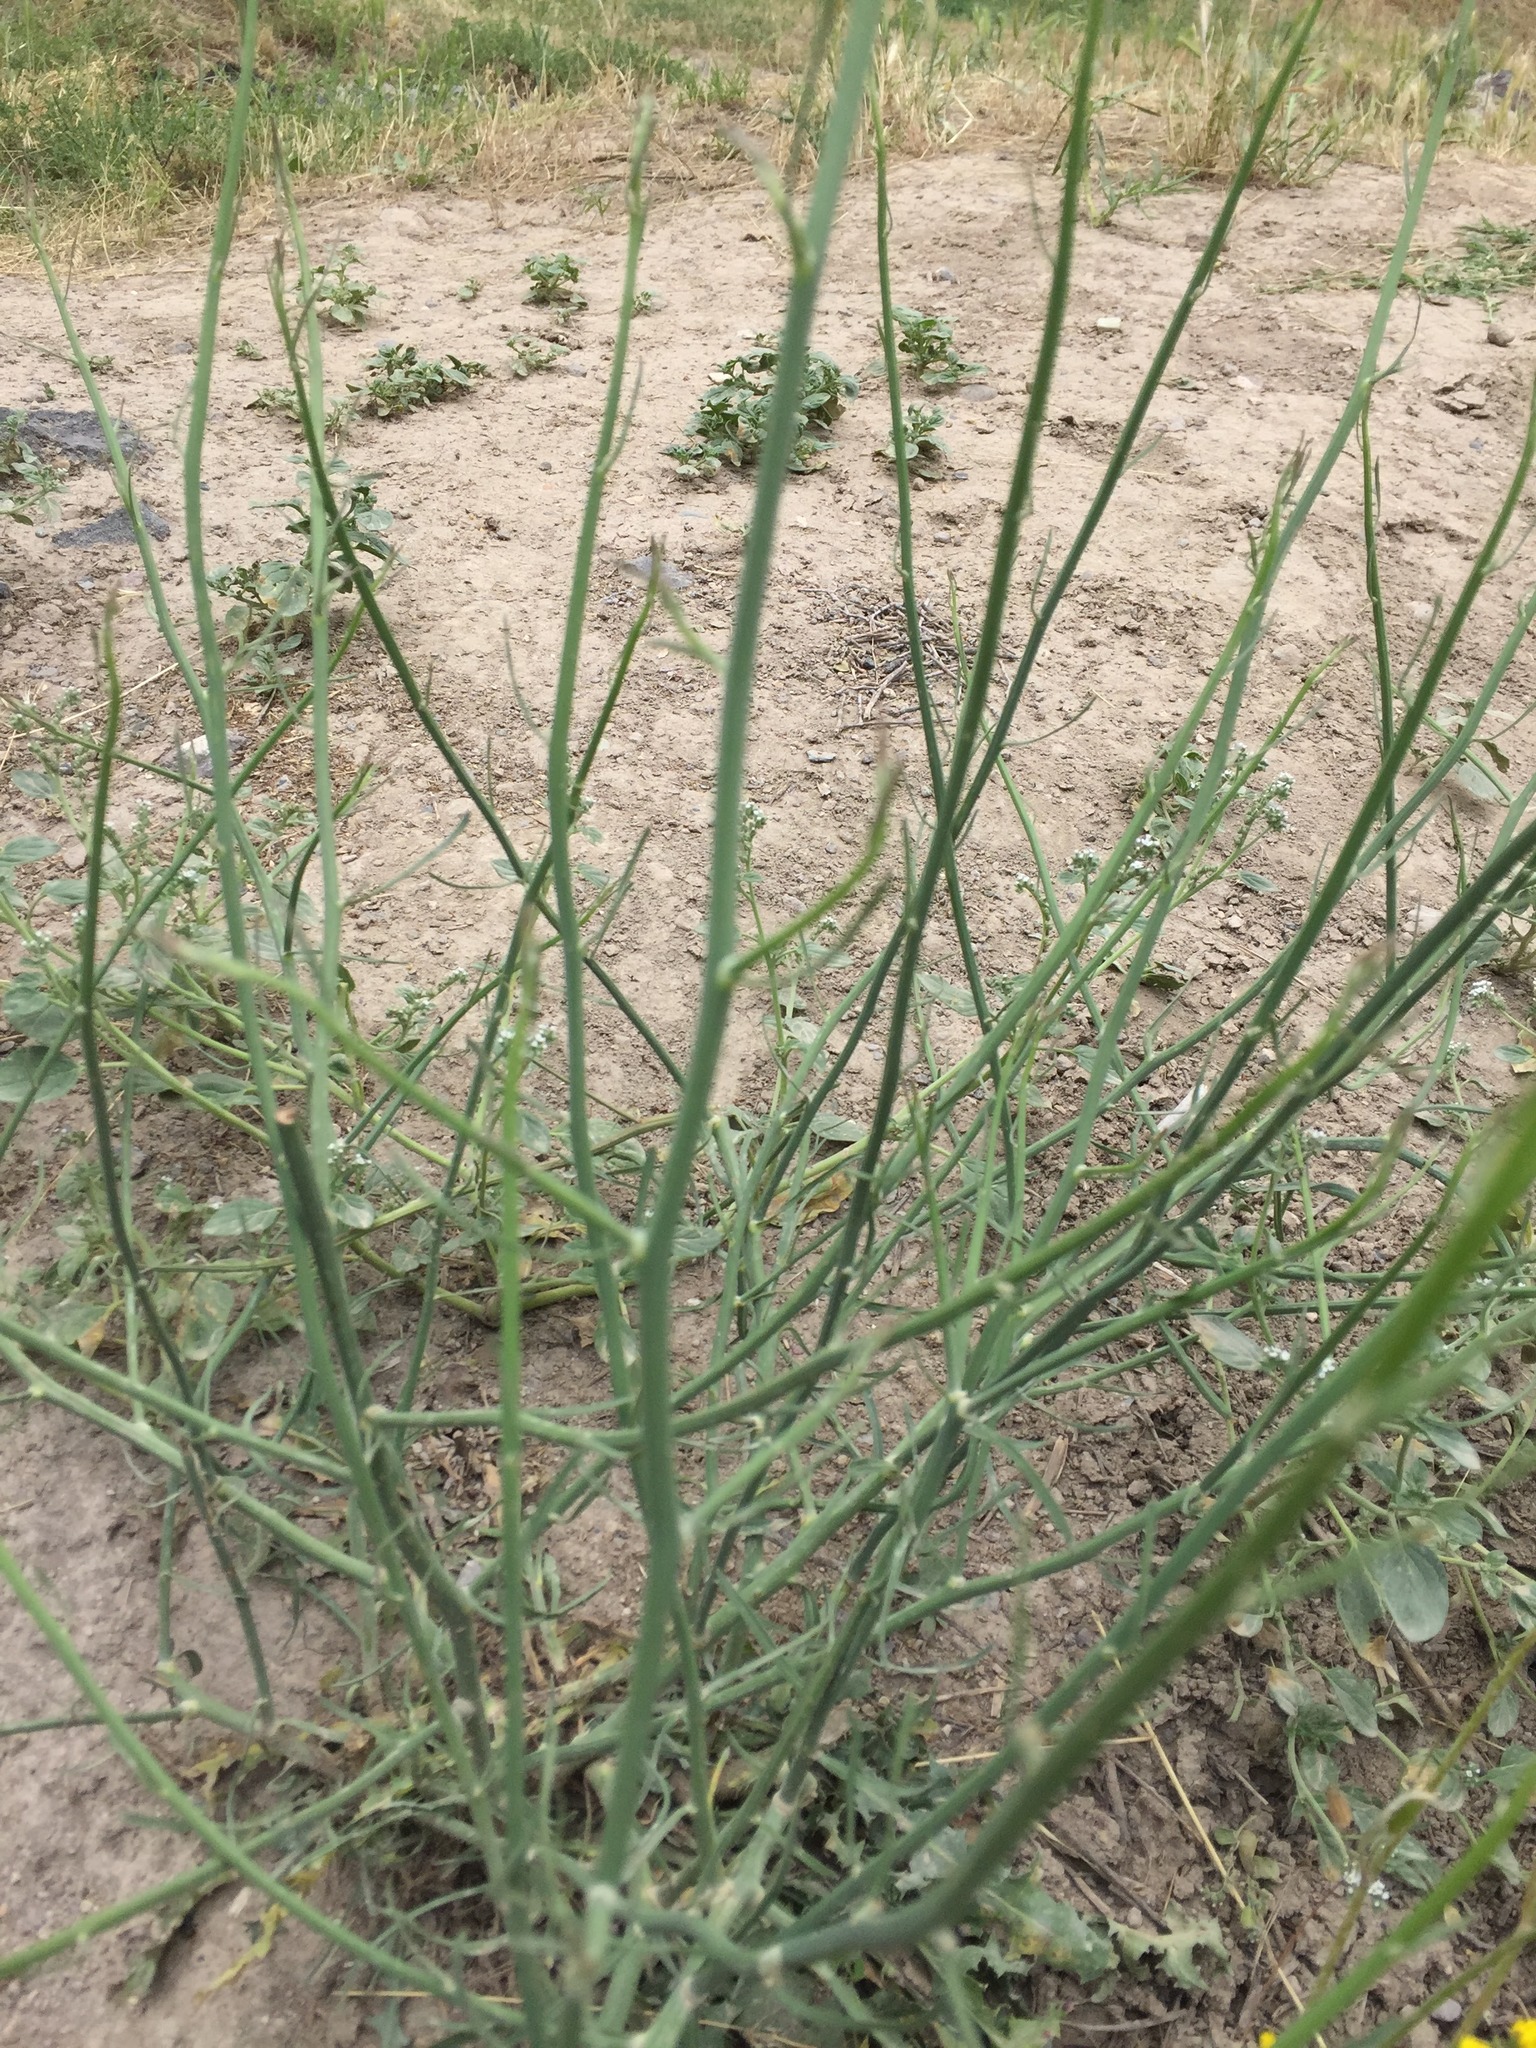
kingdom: Plantae
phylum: Tracheophyta
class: Magnoliopsida
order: Asterales
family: Asteraceae
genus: Chondrilla
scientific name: Chondrilla juncea
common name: Skeleton weed
